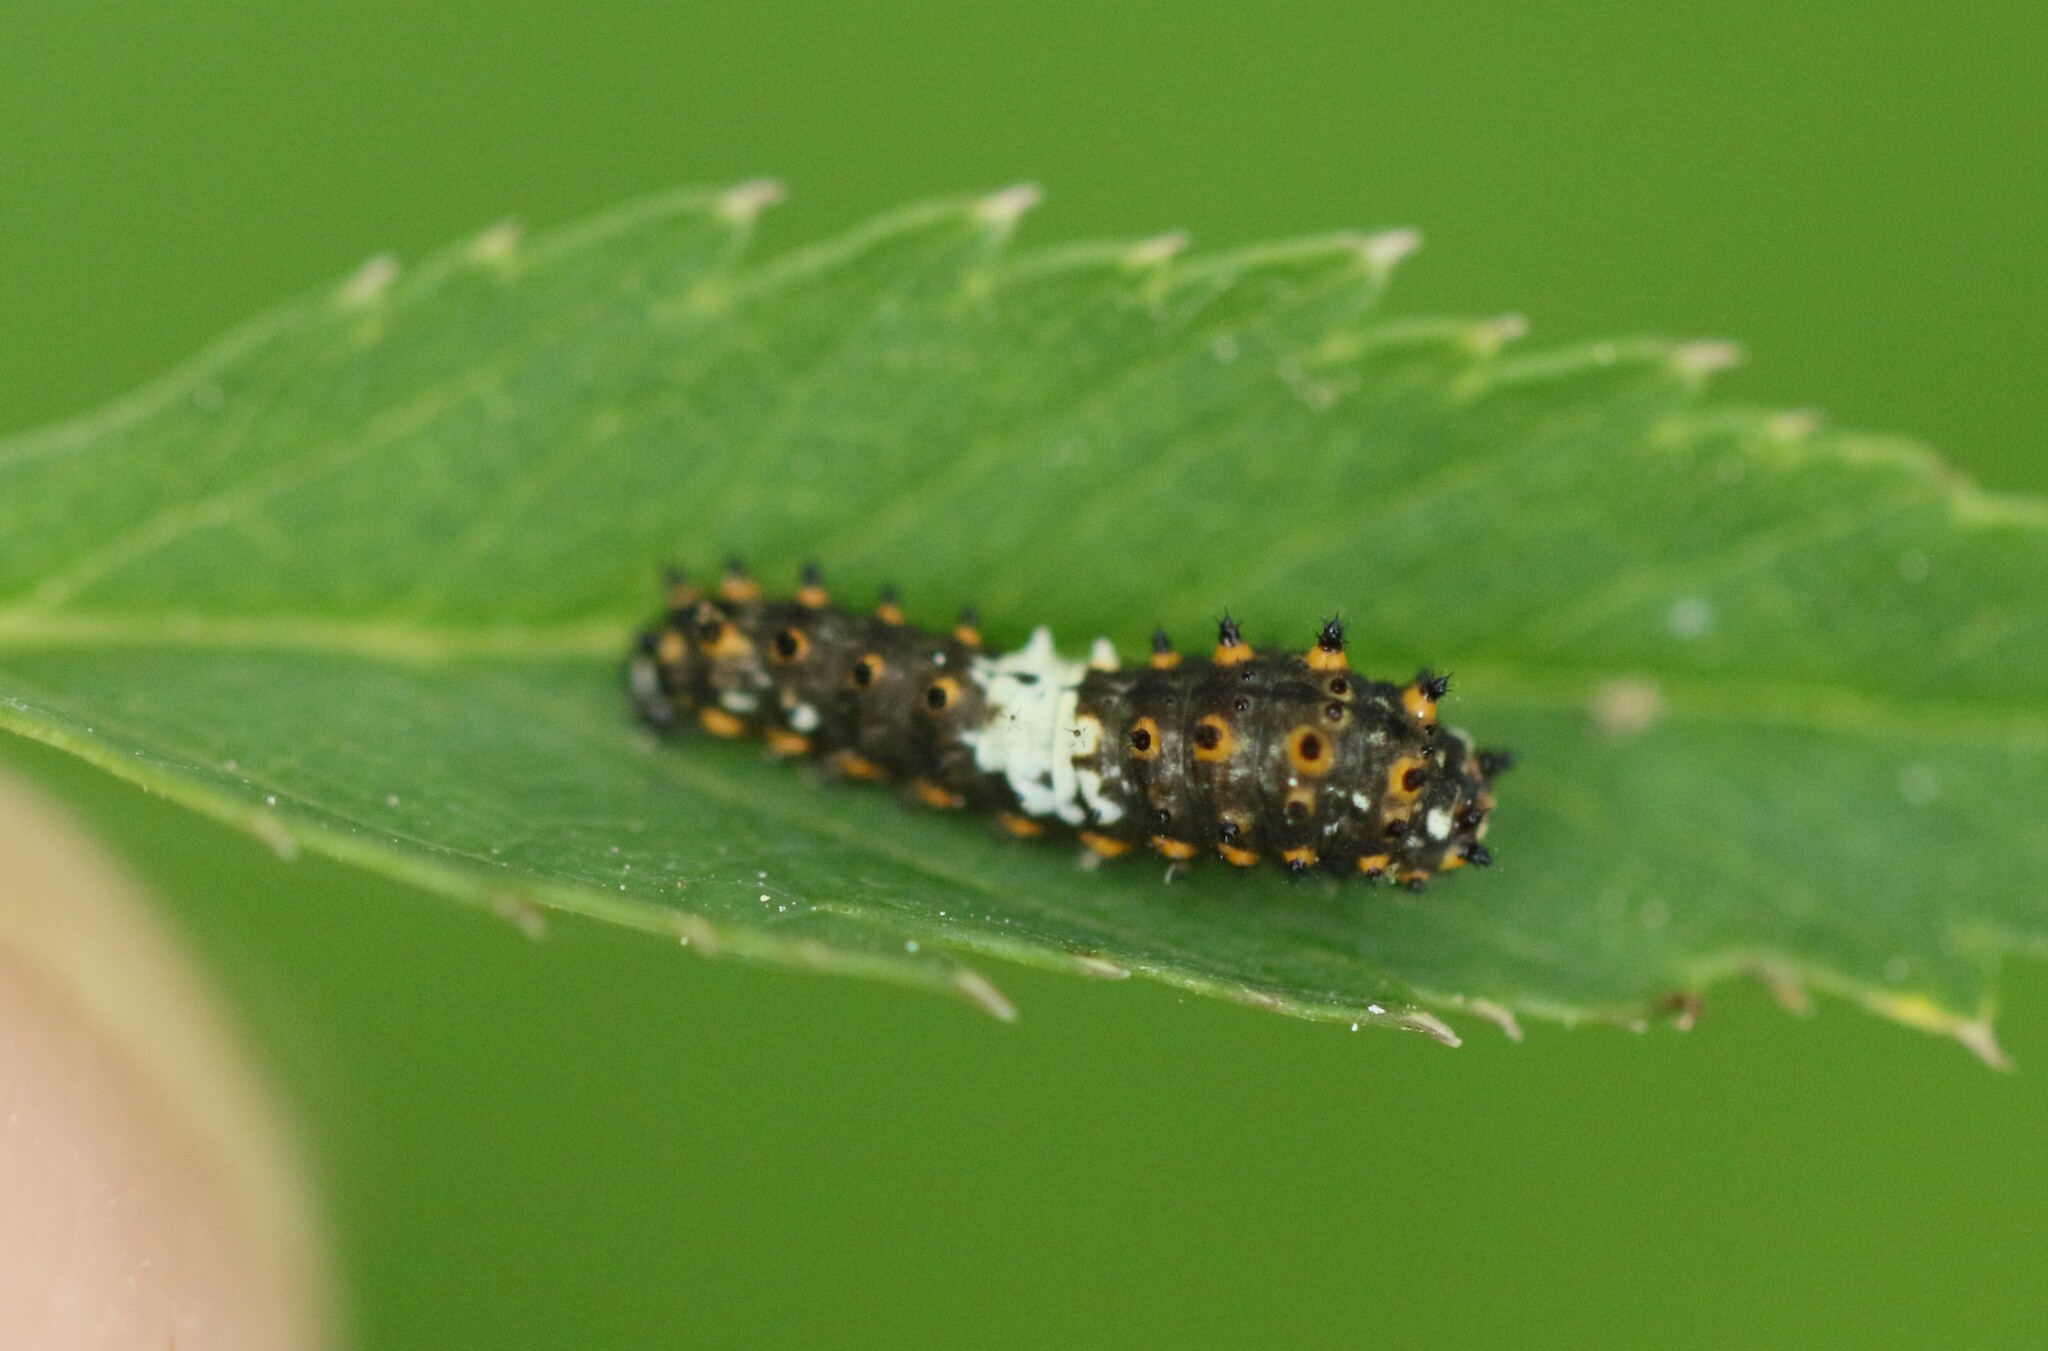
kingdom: Animalia
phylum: Arthropoda
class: Insecta
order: Lepidoptera
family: Papilionidae
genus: Papilio
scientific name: Papilio polyxenes
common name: Black swallowtail
